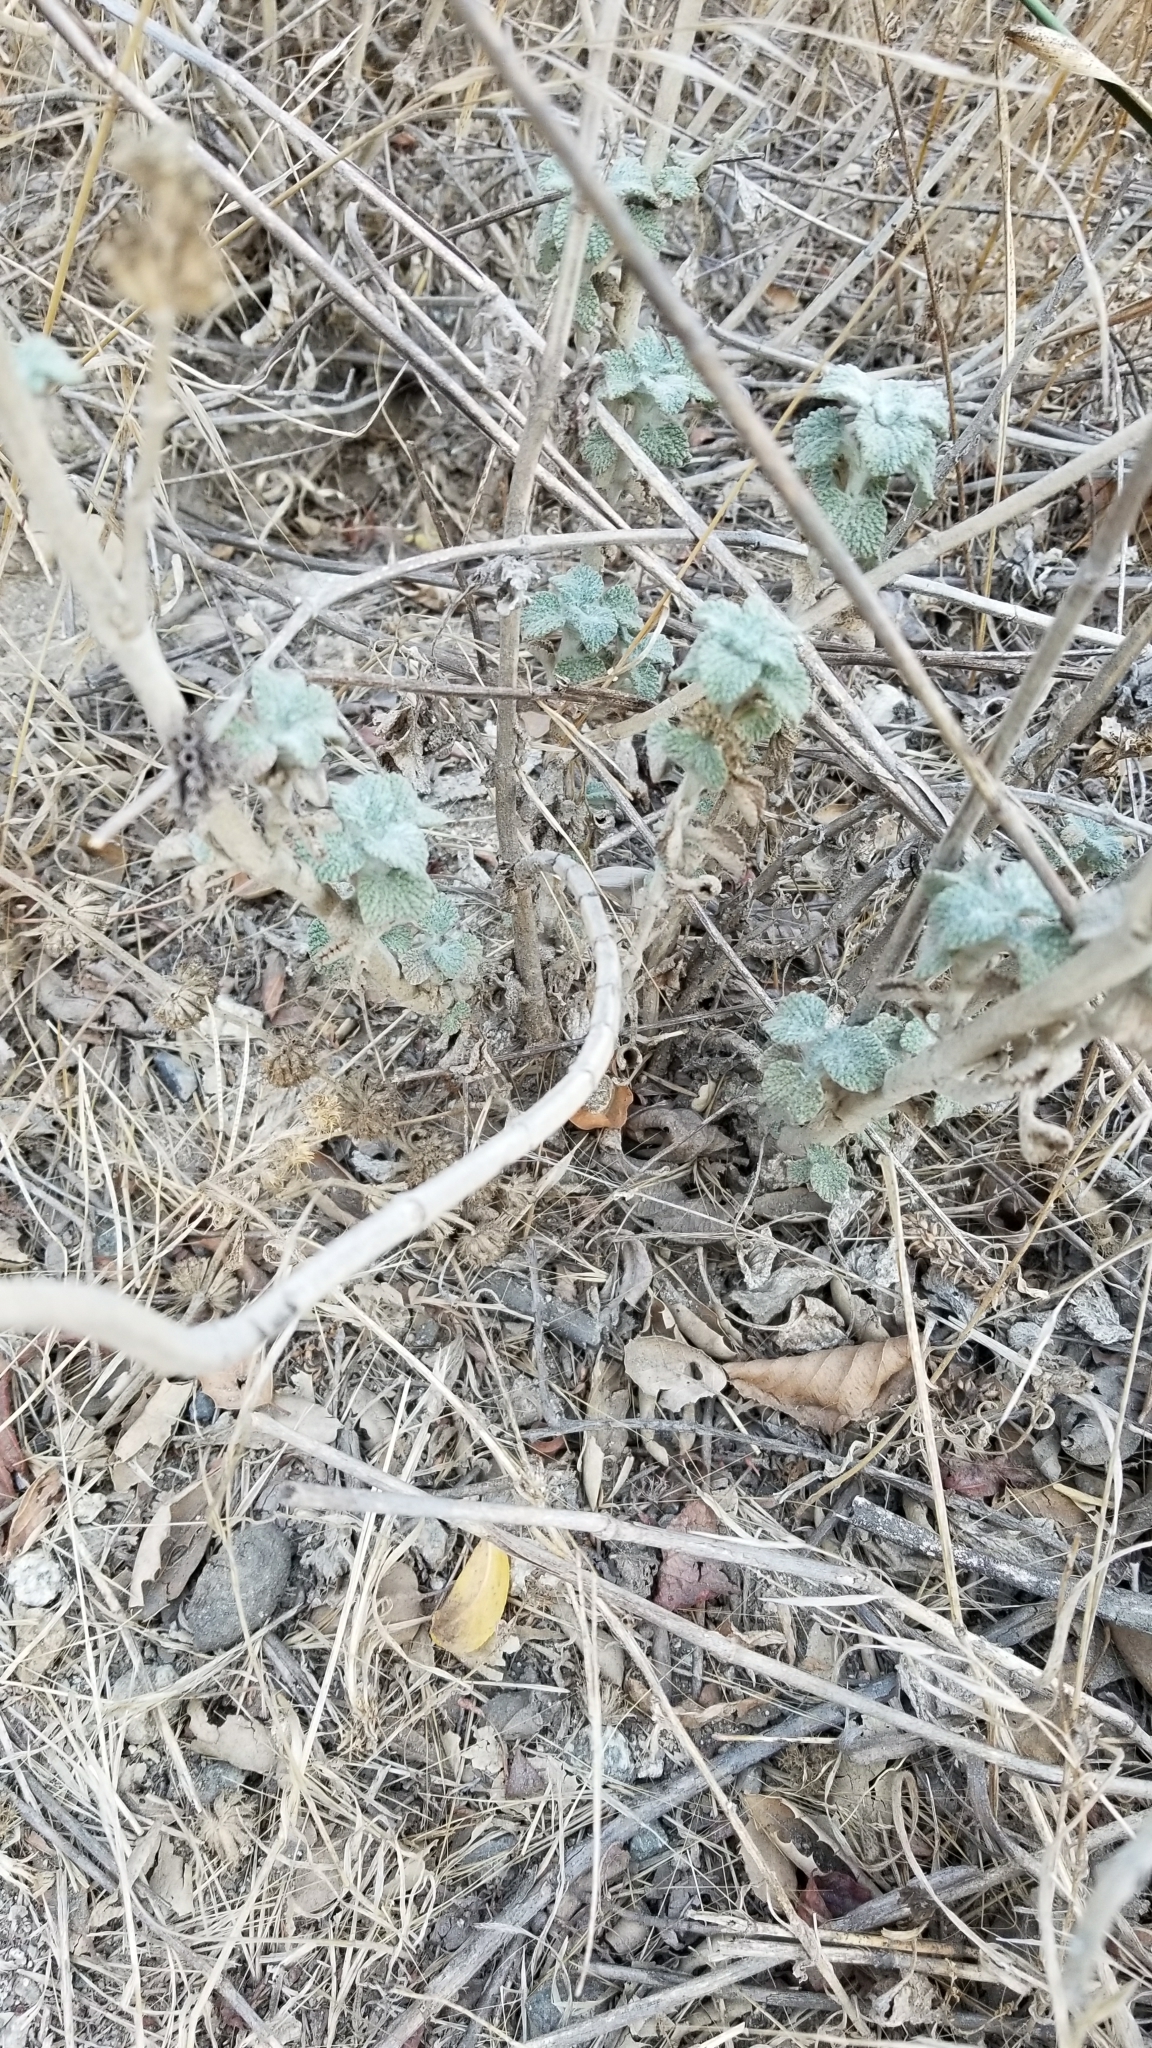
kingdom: Plantae
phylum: Tracheophyta
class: Magnoliopsida
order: Lamiales
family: Lamiaceae
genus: Marrubium
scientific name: Marrubium vulgare
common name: Horehound
